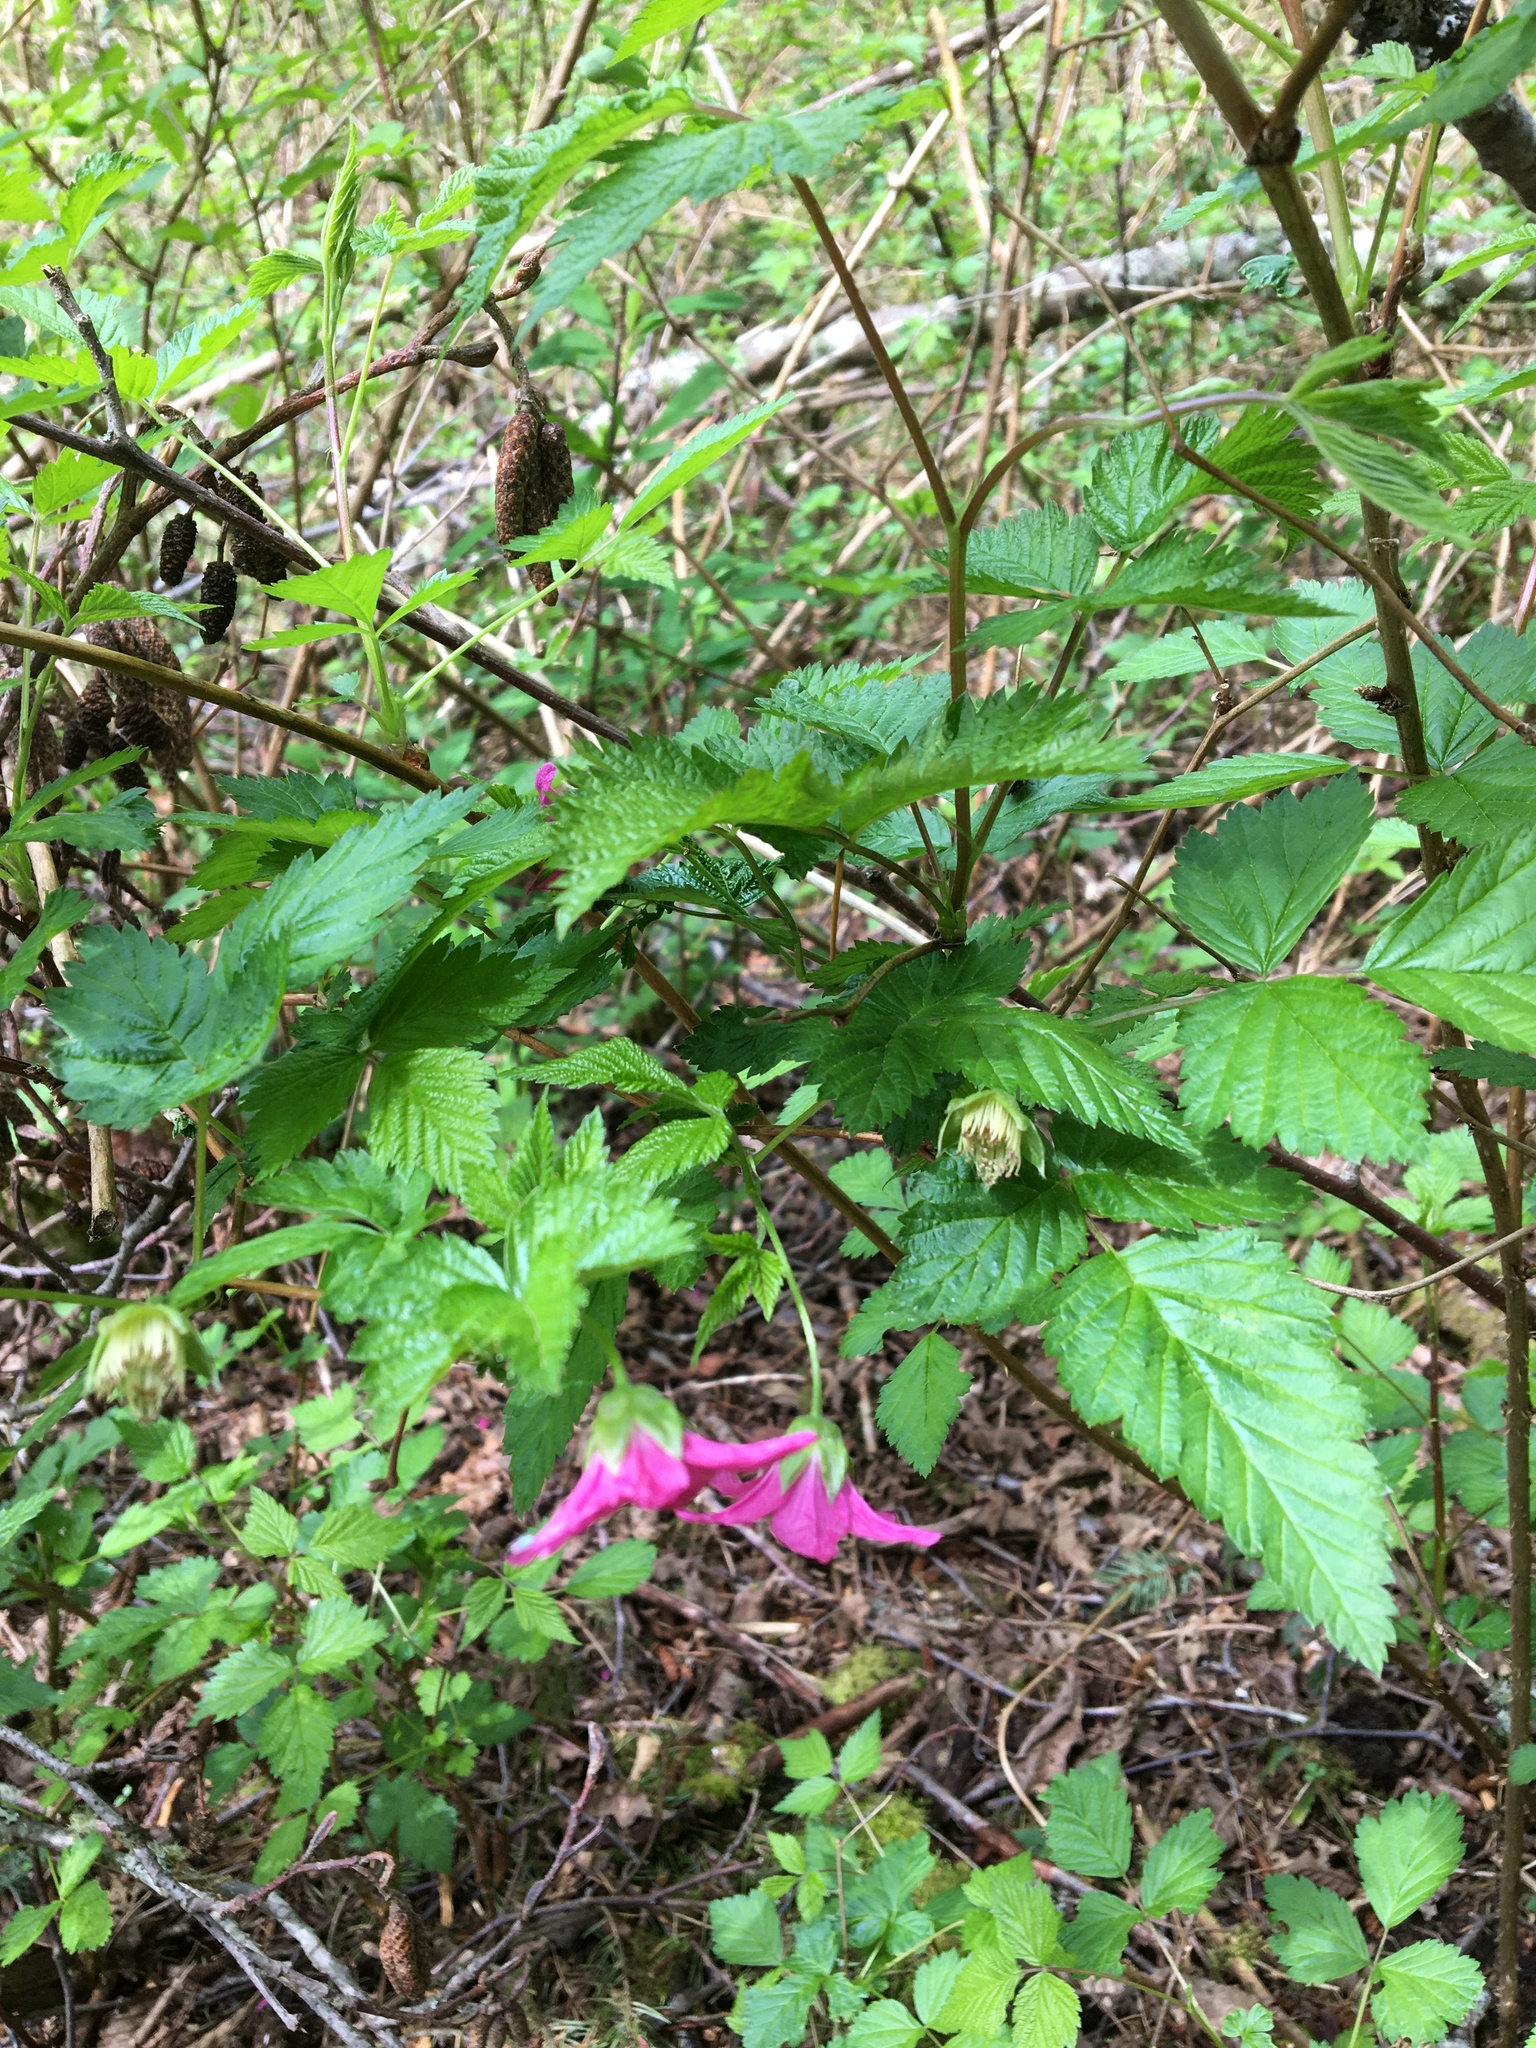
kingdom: Plantae
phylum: Tracheophyta
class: Magnoliopsida
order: Rosales
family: Rosaceae
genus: Rubus
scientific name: Rubus spectabilis
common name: Salmonberry
